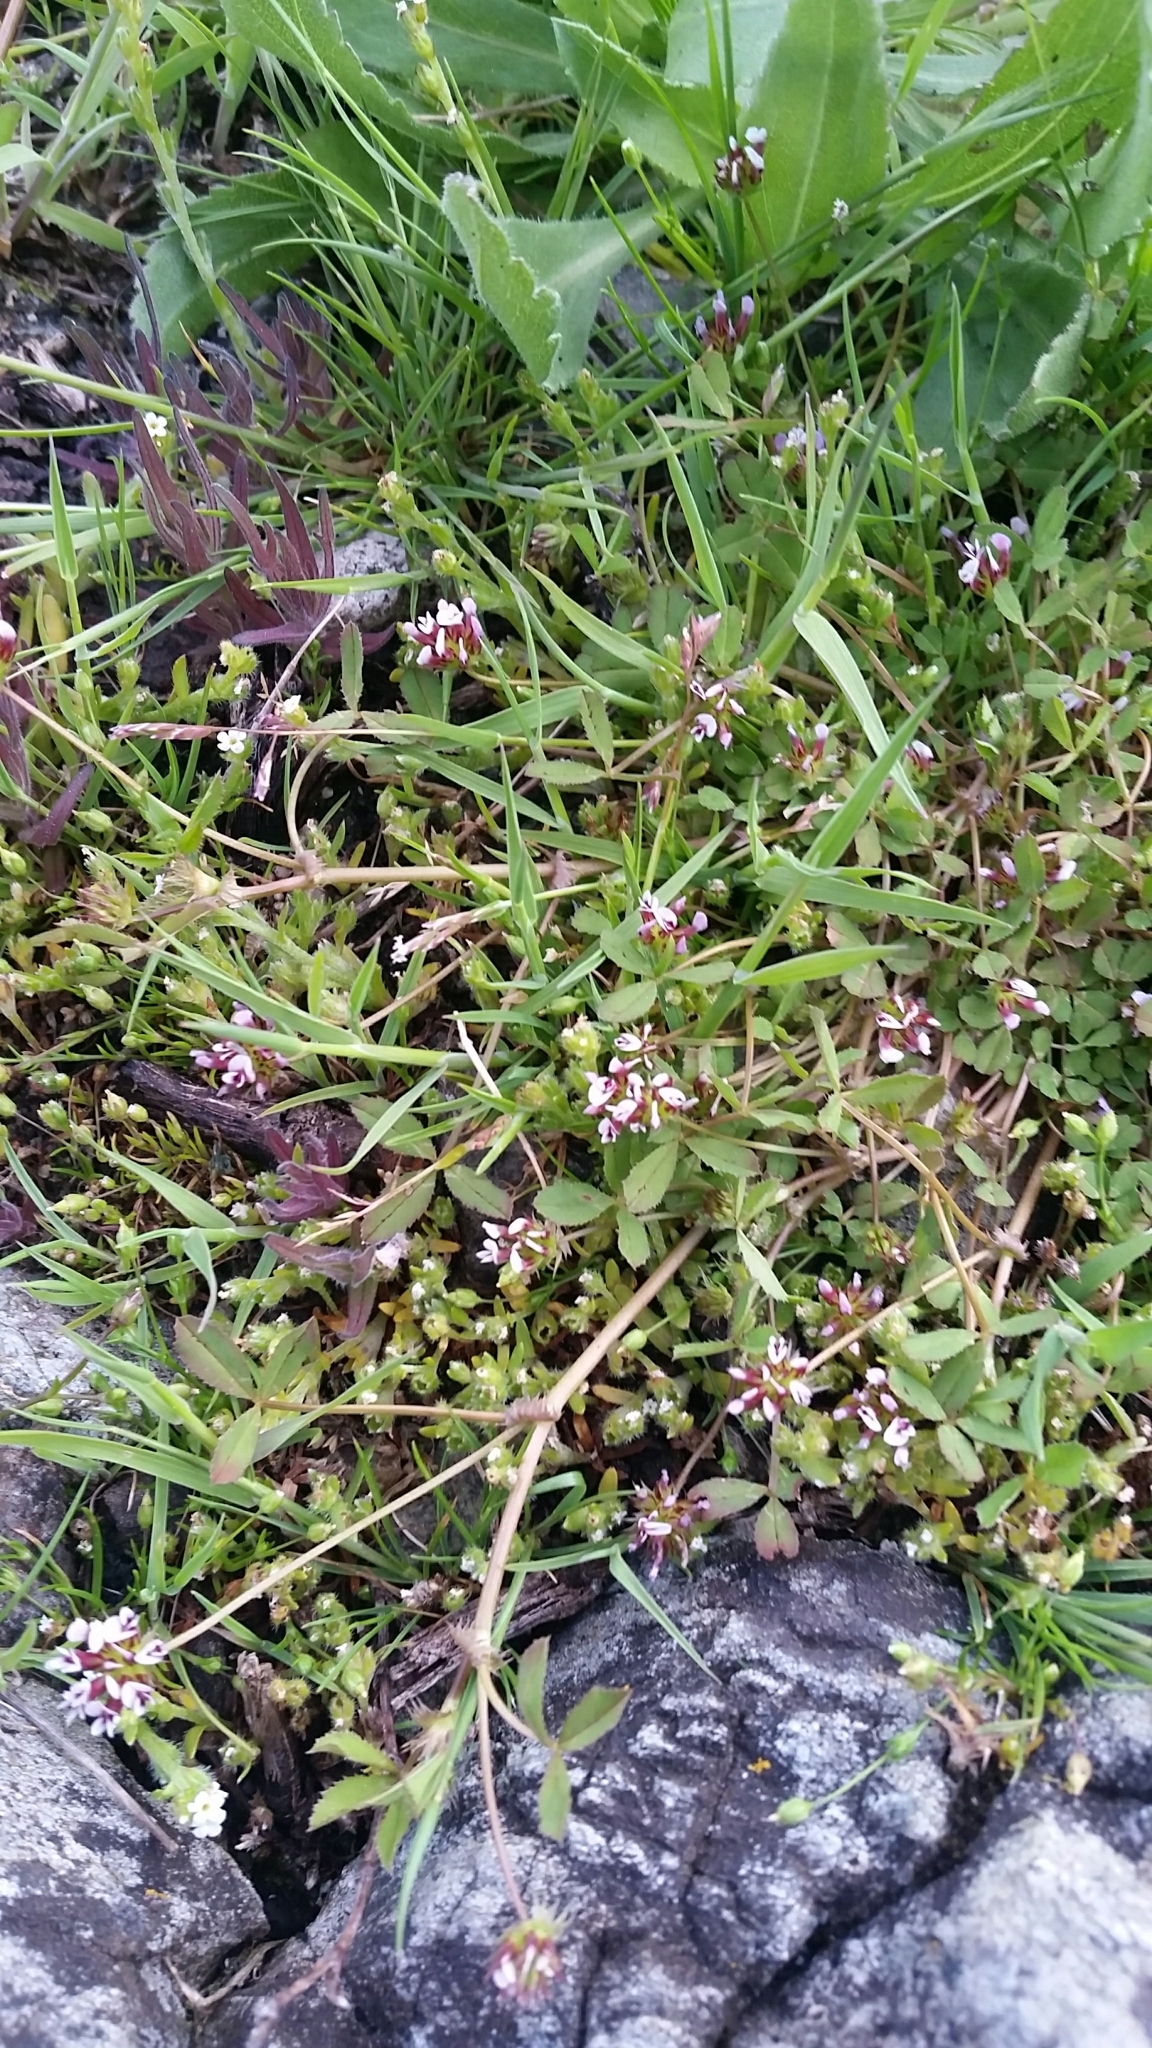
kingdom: Plantae
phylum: Tracheophyta
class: Magnoliopsida
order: Fabales
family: Fabaceae
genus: Trifolium
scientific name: Trifolium variegatum
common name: Whitetip clover
